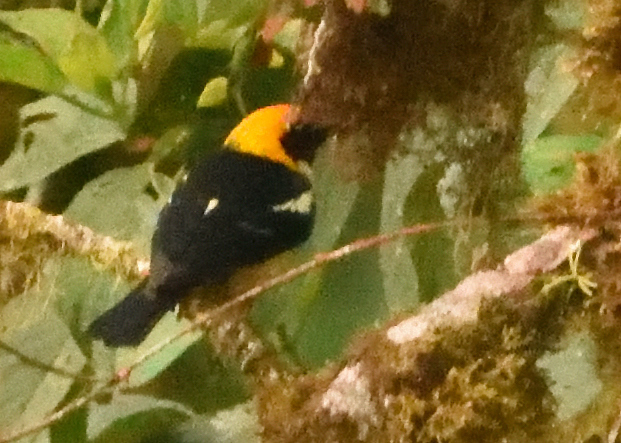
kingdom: Animalia
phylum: Chordata
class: Aves
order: Passeriformes
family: Thraupidae
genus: Tangara
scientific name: Tangara parzudakii
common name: Flame-faced tanager
